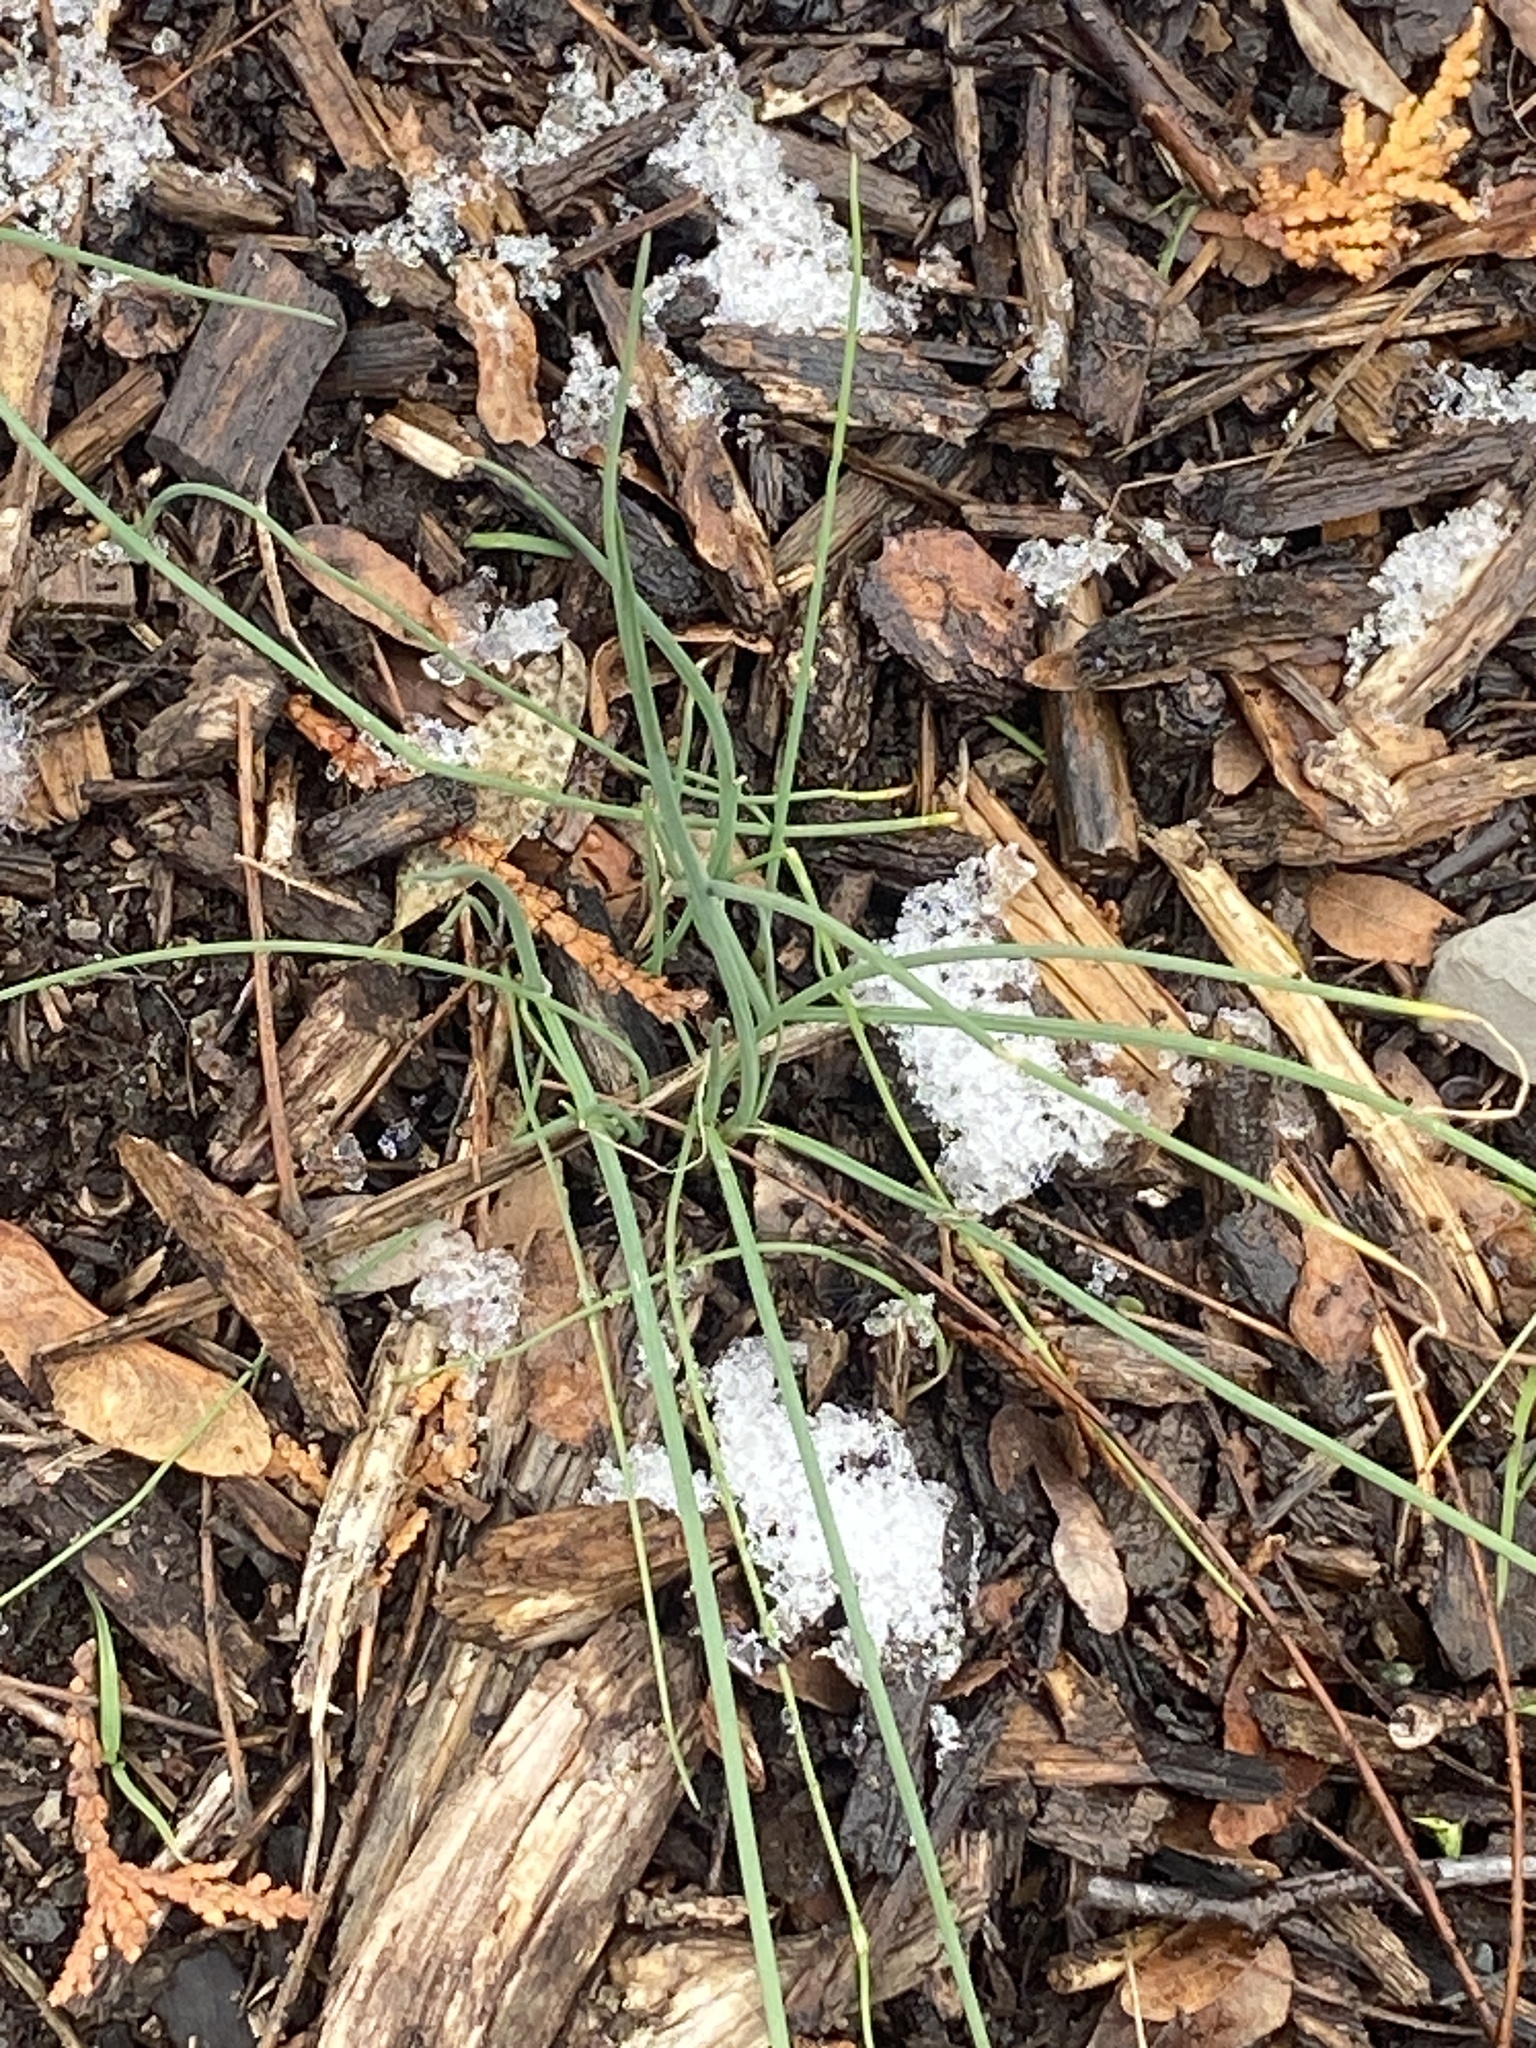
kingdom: Plantae
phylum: Tracheophyta
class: Liliopsida
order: Asparagales
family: Amaryllidaceae
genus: Allium
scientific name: Allium vineale
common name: Crow garlic
